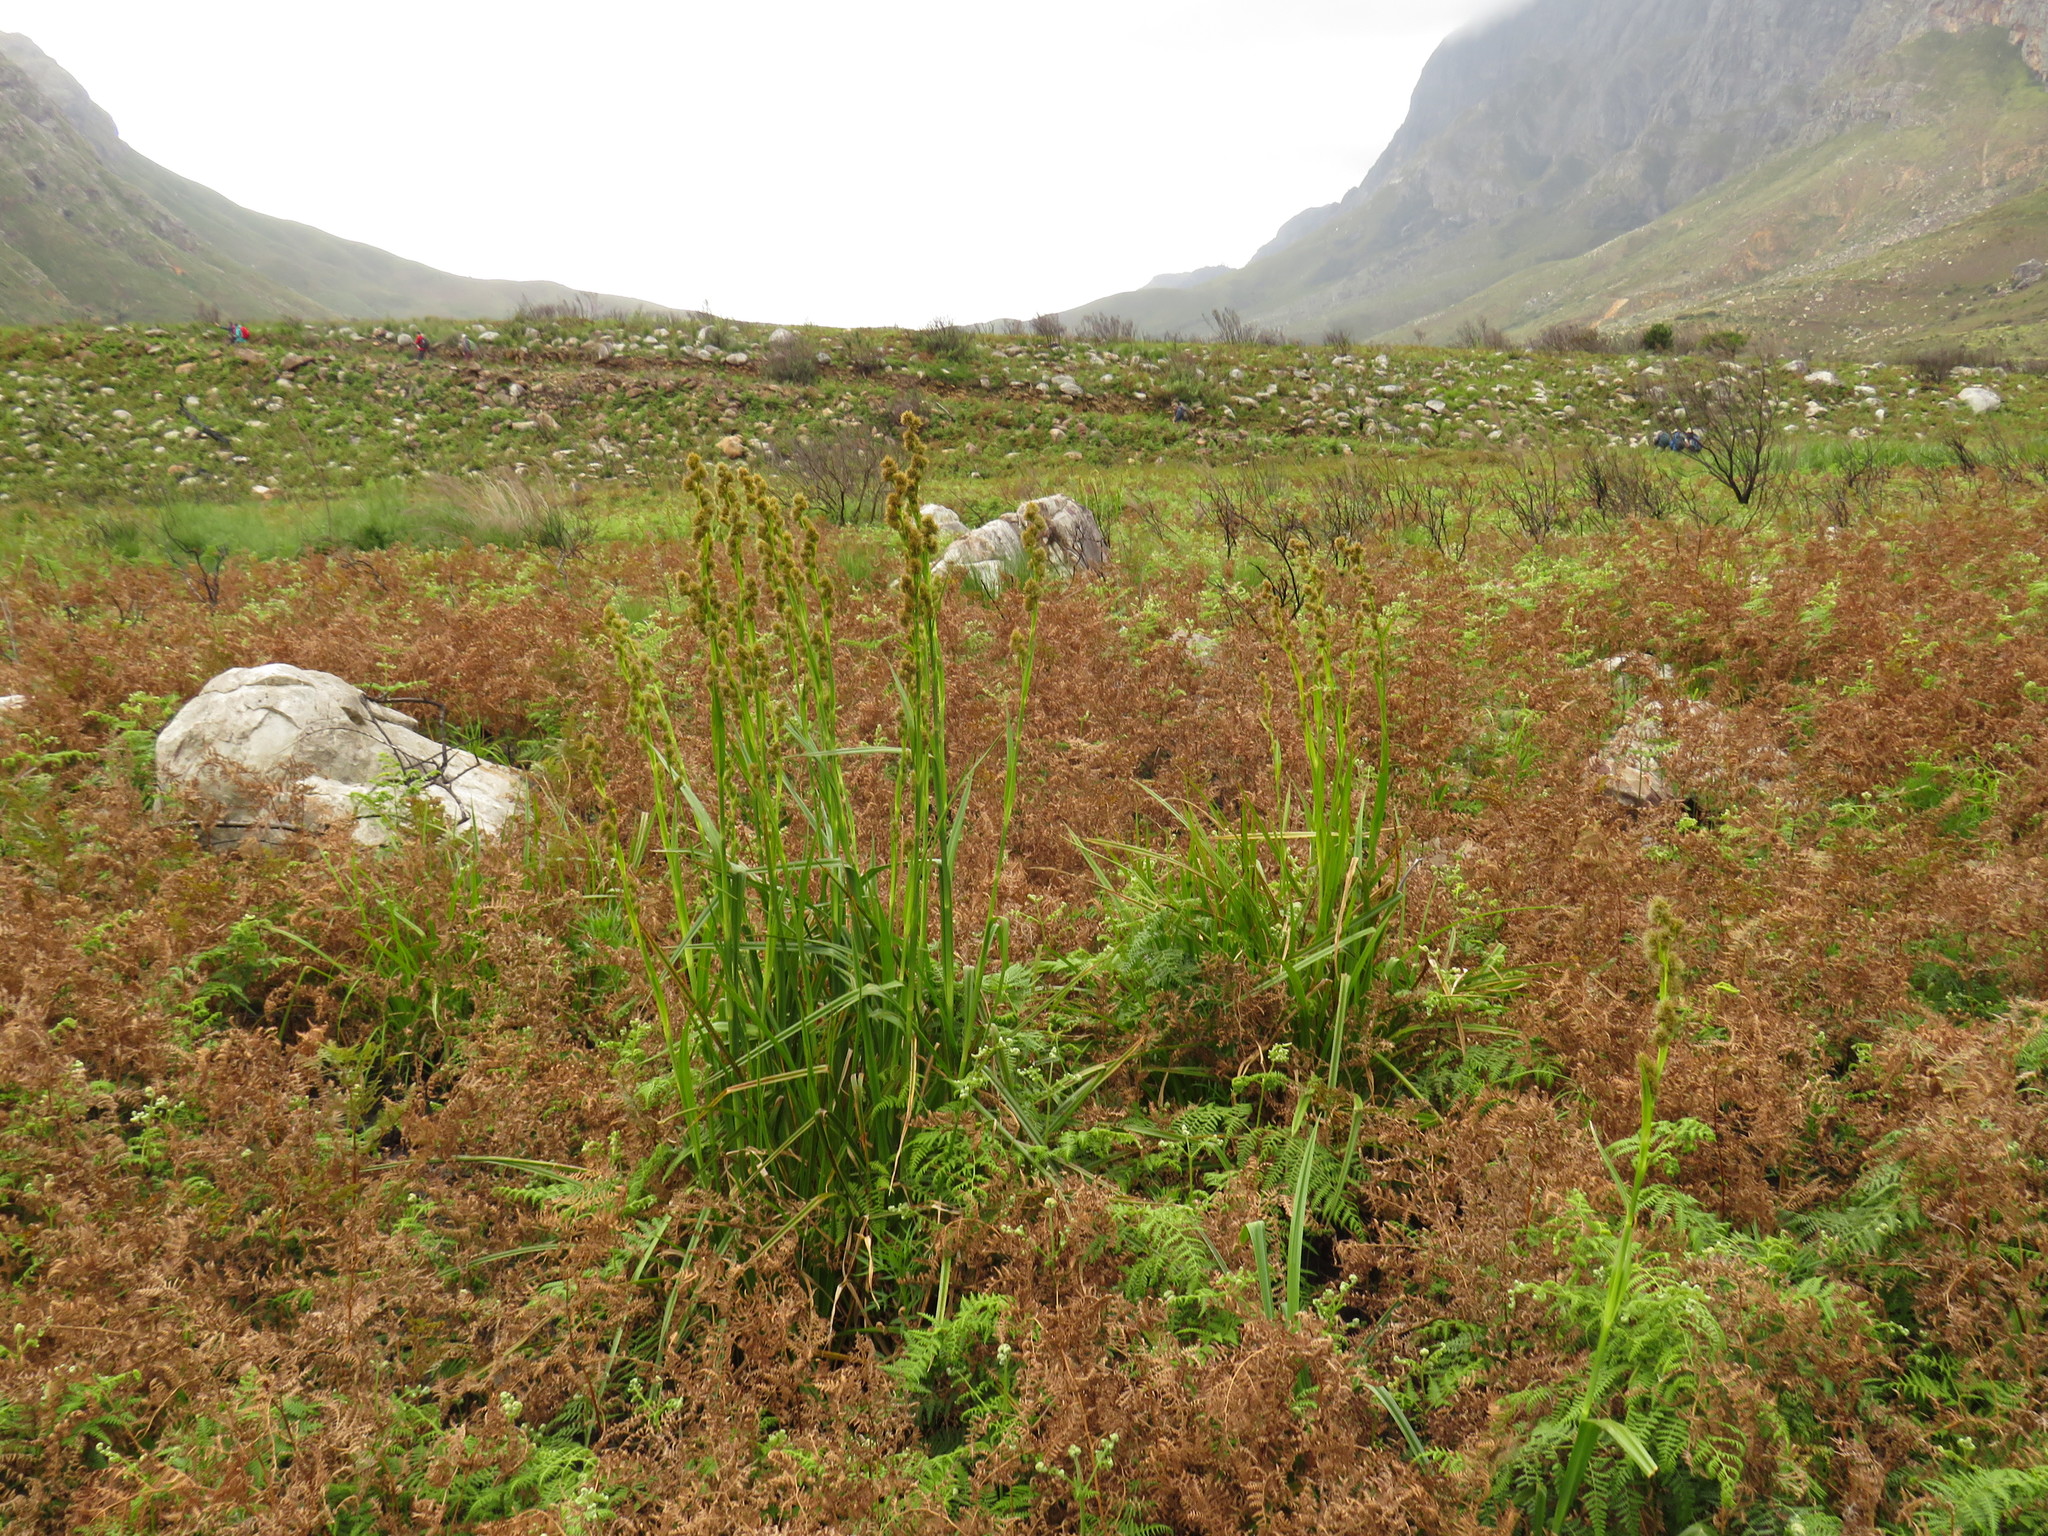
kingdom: Plantae
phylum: Tracheophyta
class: Liliopsida
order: Poales
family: Cyperaceae
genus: Carpha
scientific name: Carpha glomerata
